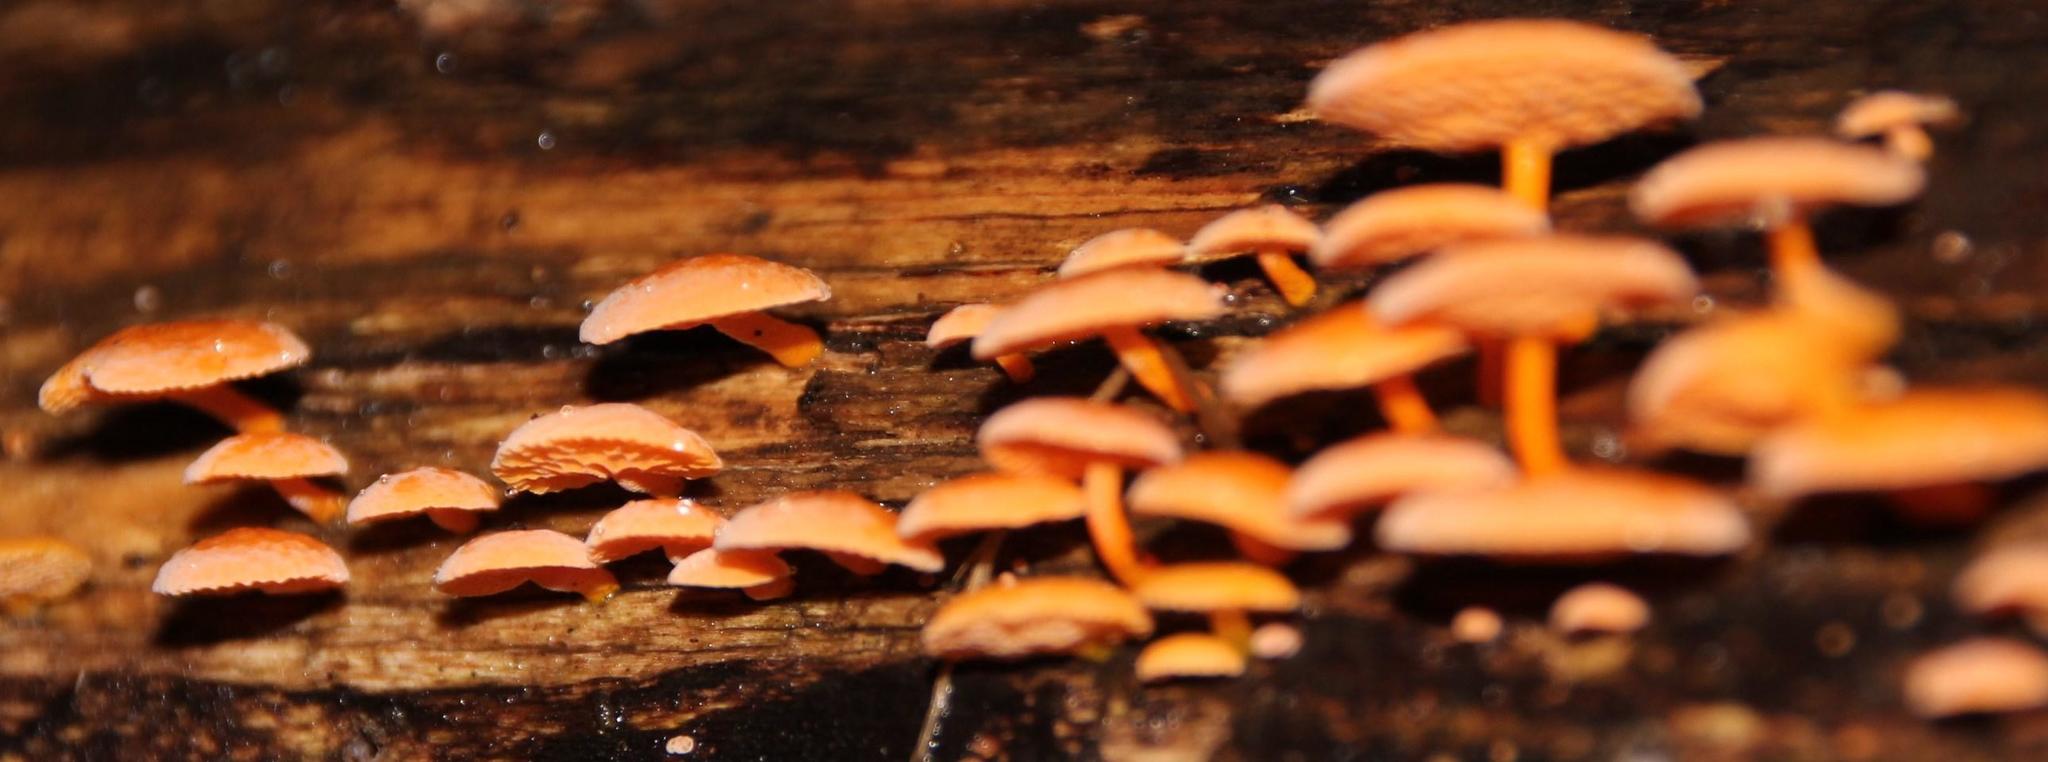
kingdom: Fungi
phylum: Basidiomycota
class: Agaricomycetes
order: Agaricales
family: Mycenaceae
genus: Favolaschia
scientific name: Favolaschia claudopus
